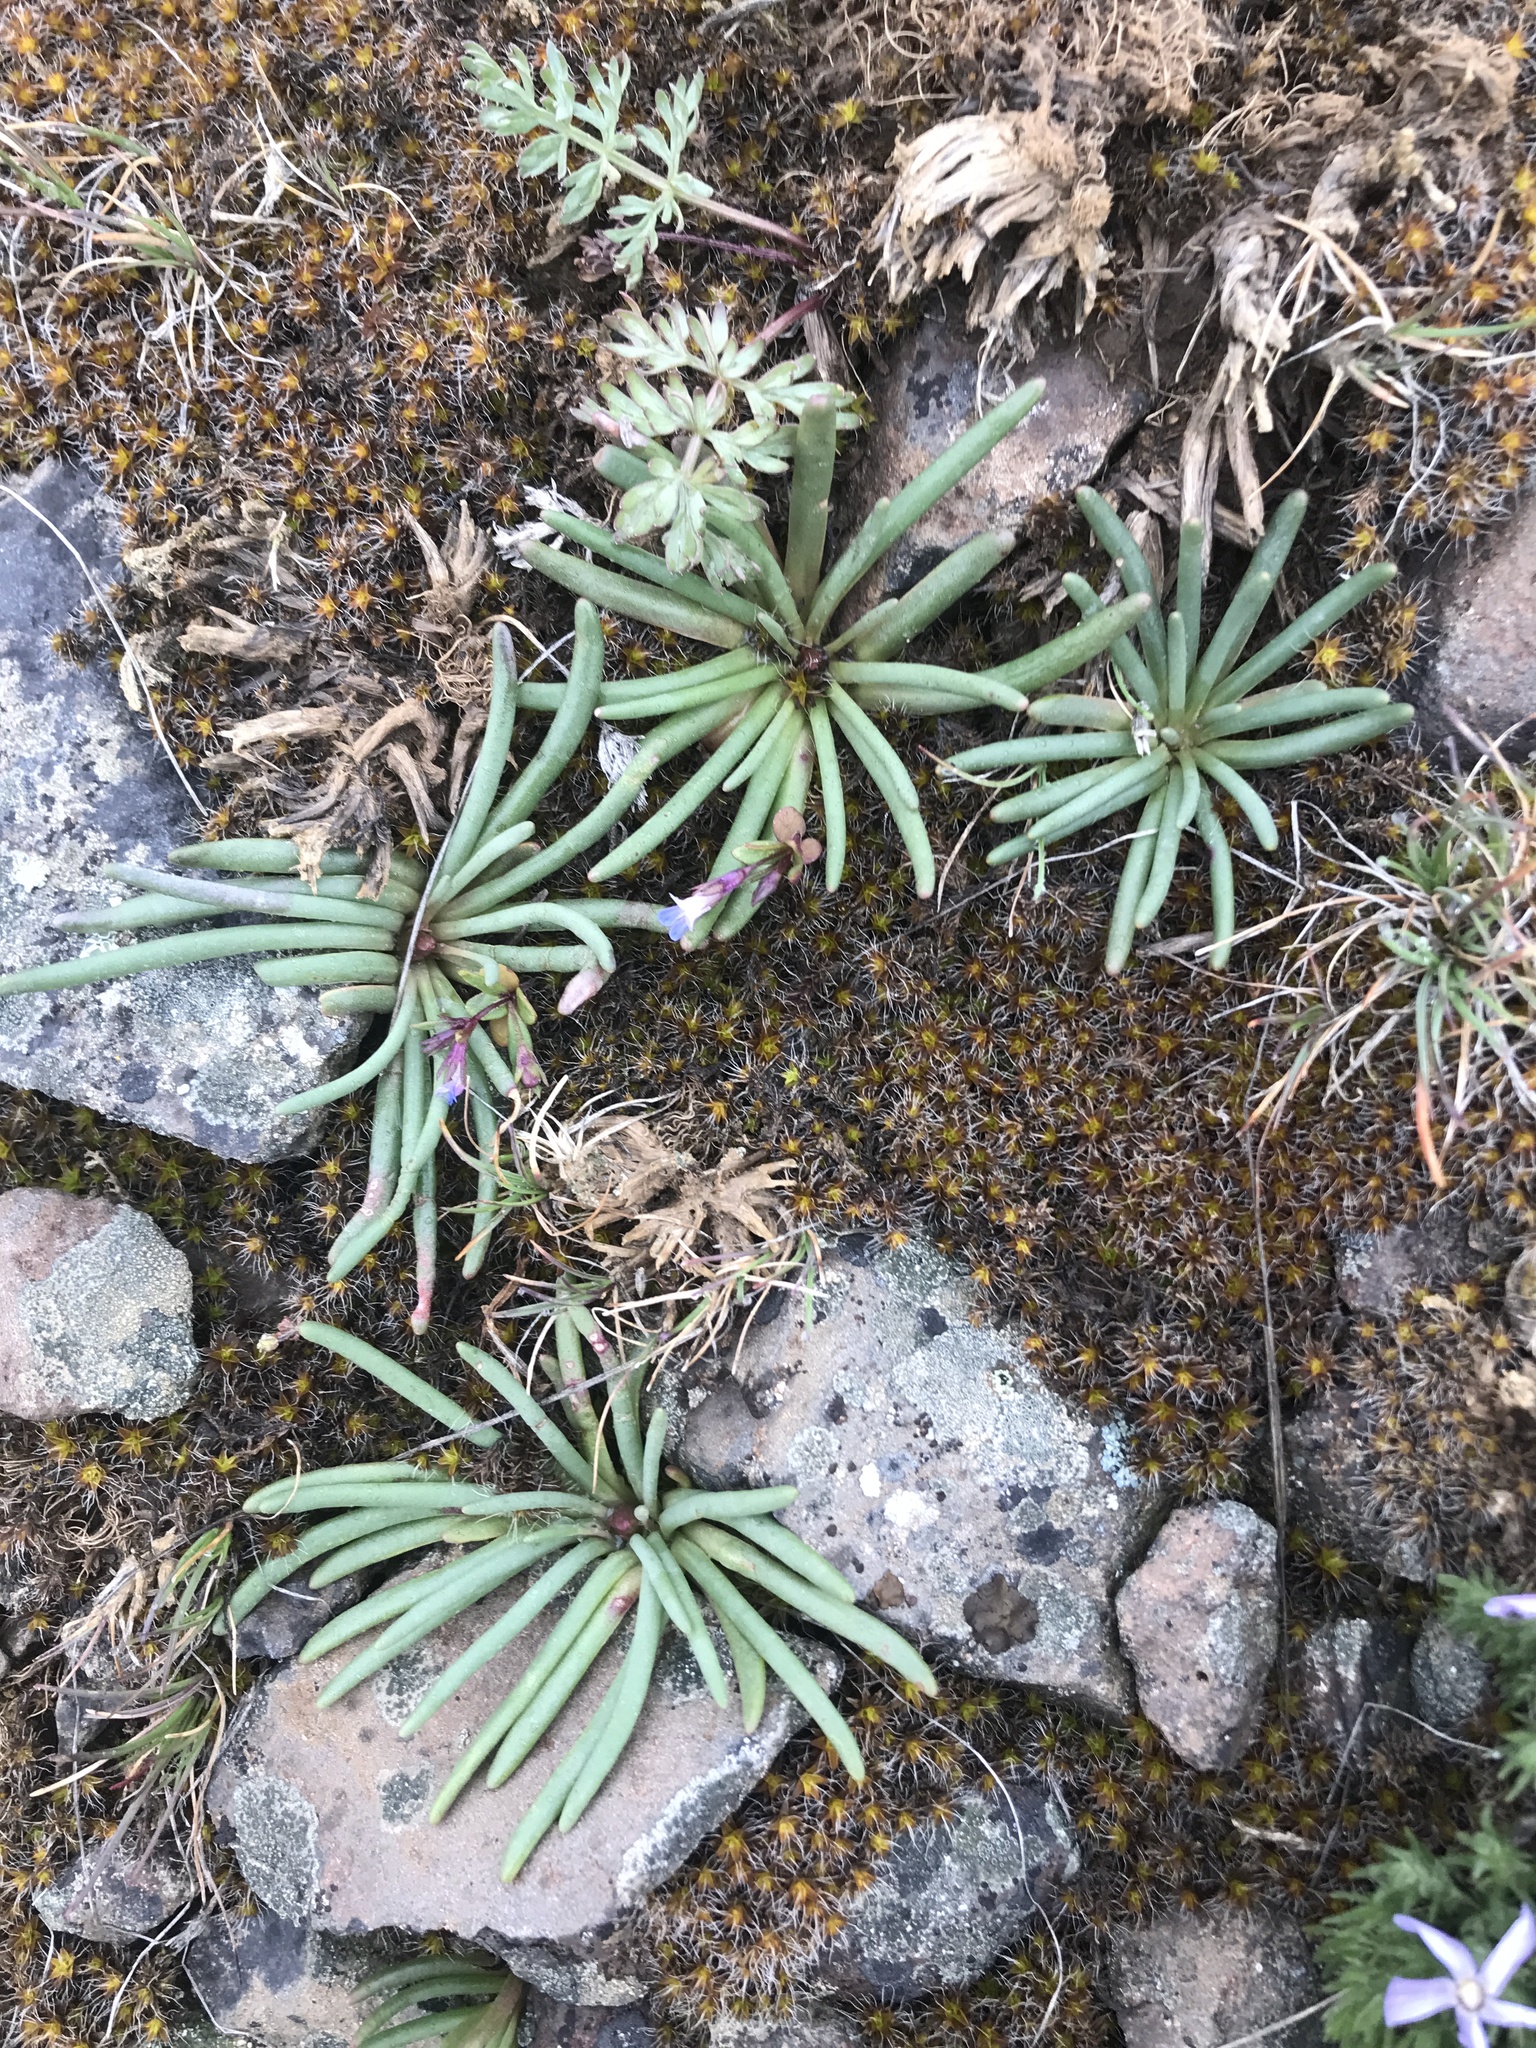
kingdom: Plantae
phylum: Tracheophyta
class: Magnoliopsida
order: Caryophyllales
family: Montiaceae
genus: Lewisia
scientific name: Lewisia rediviva
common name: Bitter-root
